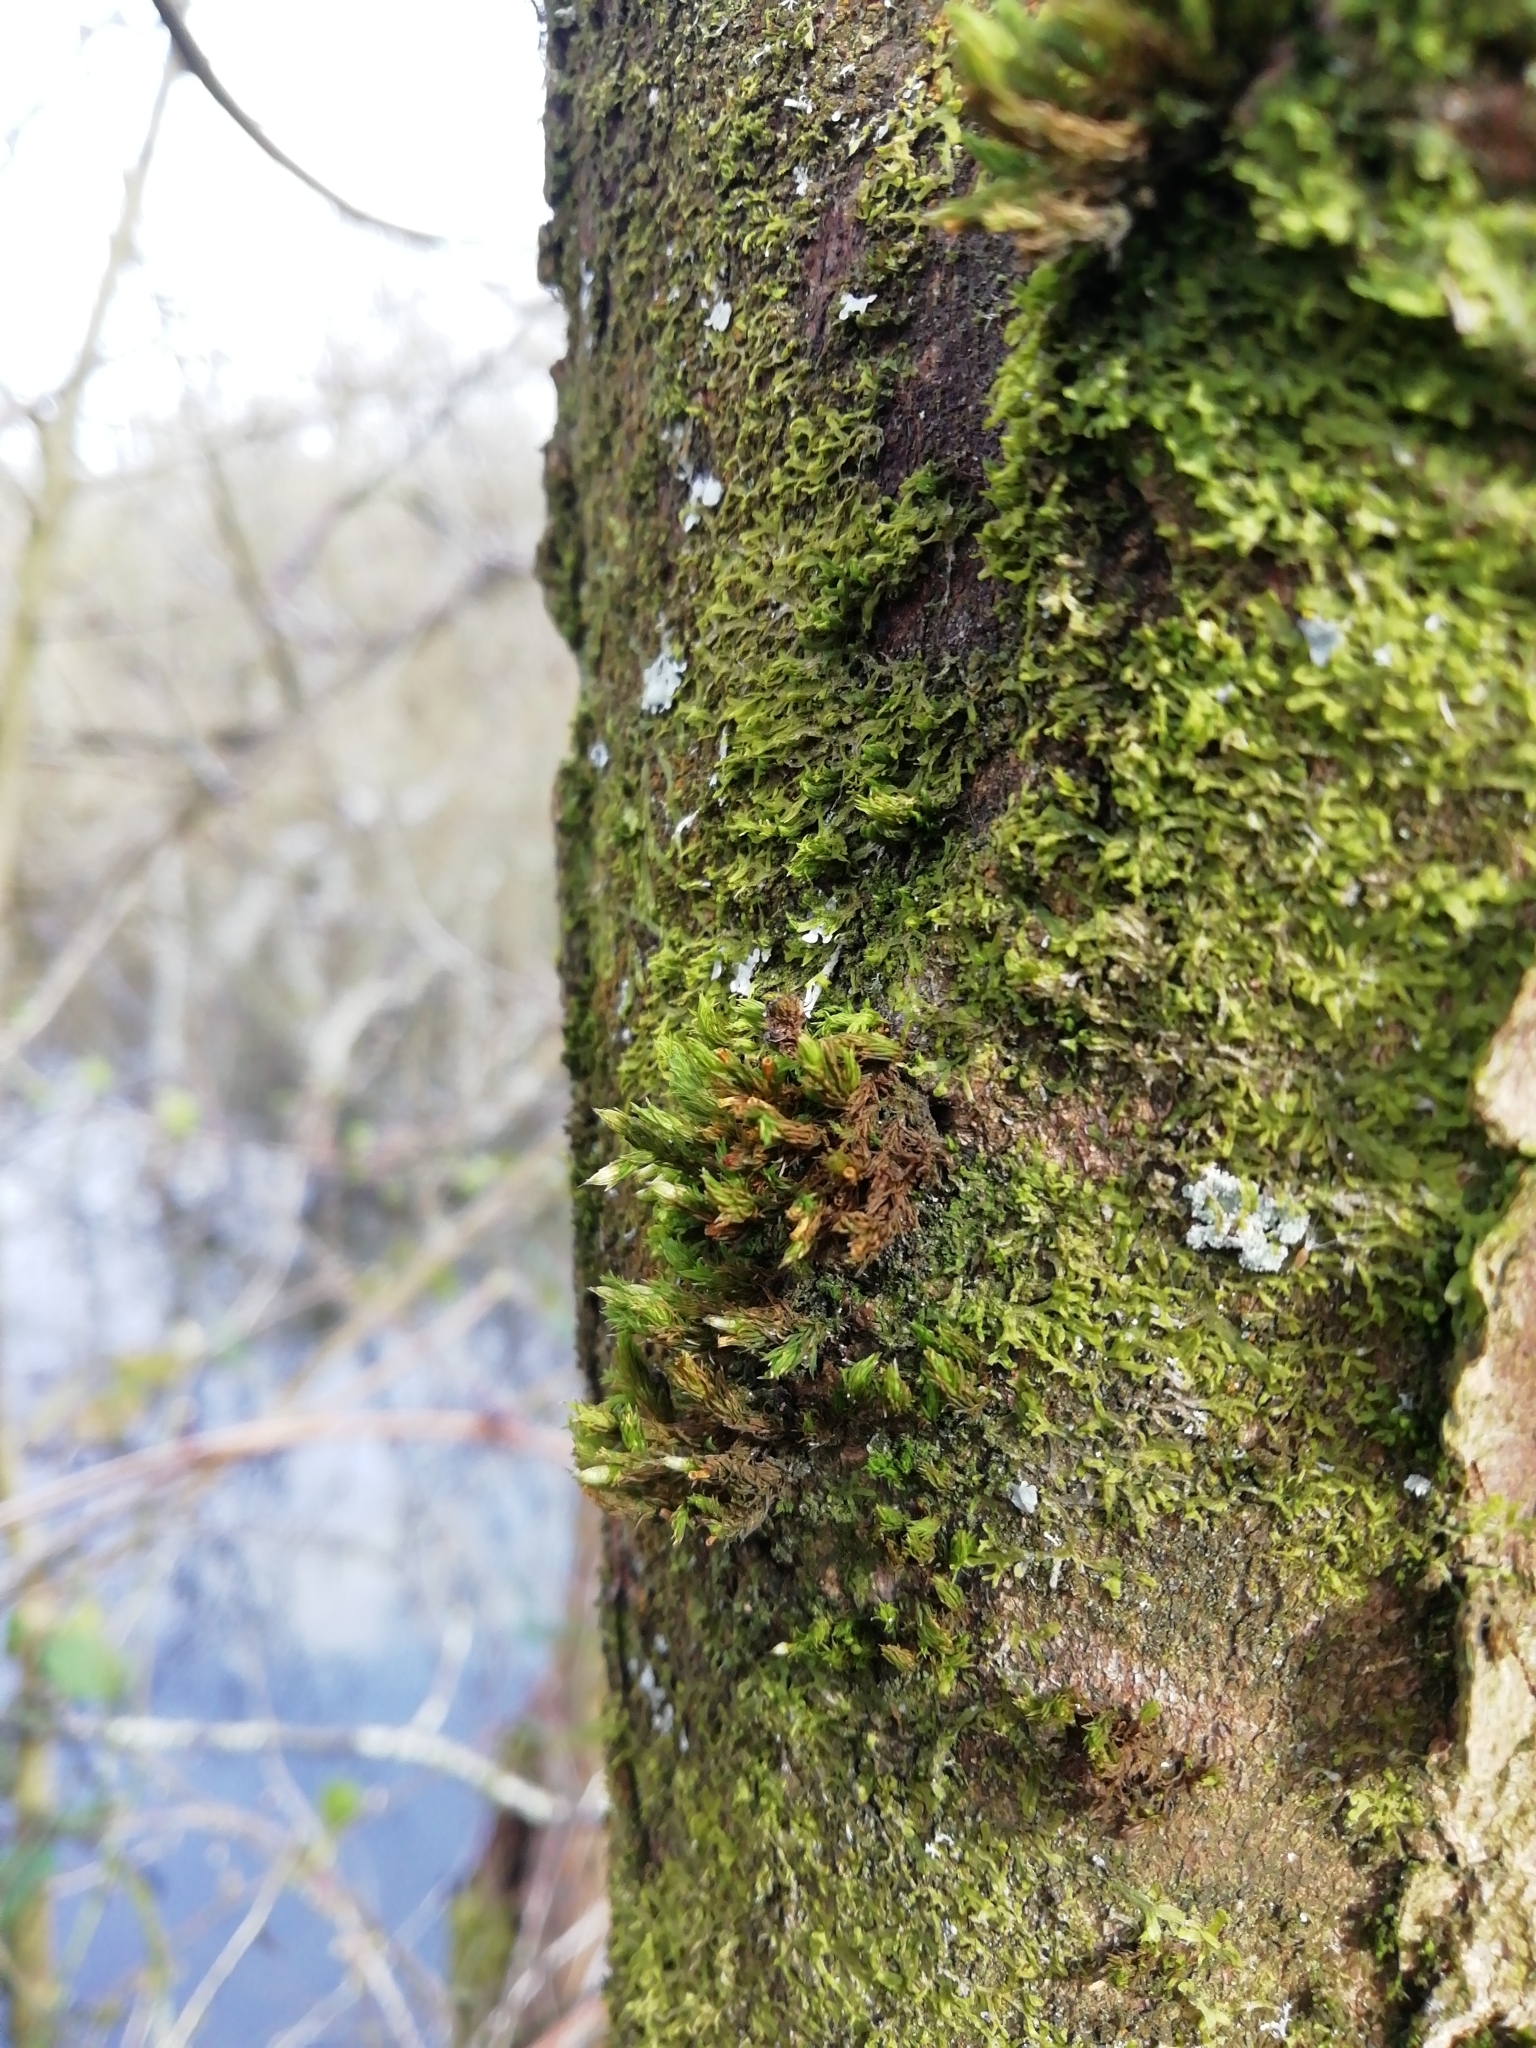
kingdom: Plantae
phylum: Bryophyta
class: Bryopsida
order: Orthotrichales
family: Orthotrichaceae
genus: Lewinskya
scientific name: Lewinskya affinis
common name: Wood bristle-moss
